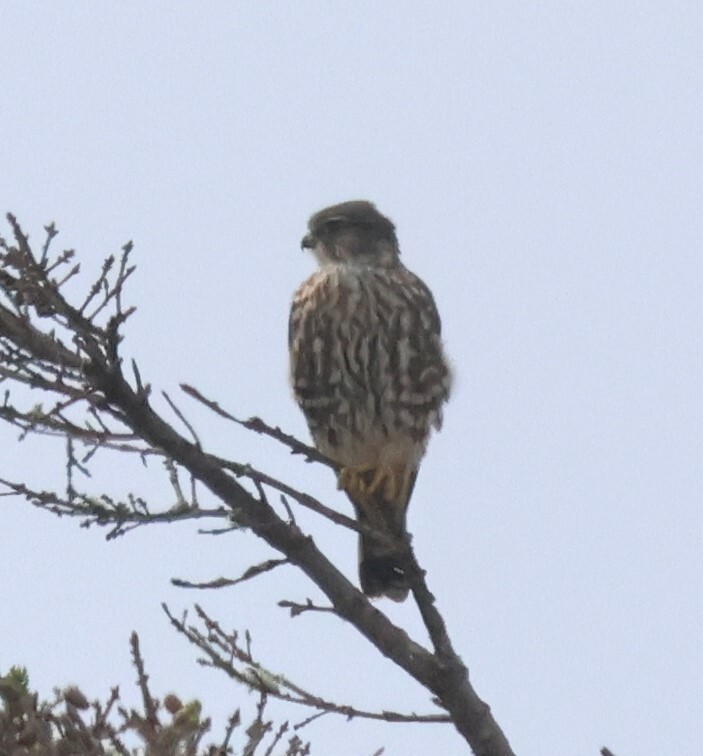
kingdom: Animalia
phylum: Chordata
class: Aves
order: Falconiformes
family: Falconidae
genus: Falco
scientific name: Falco columbarius
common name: Merlin
